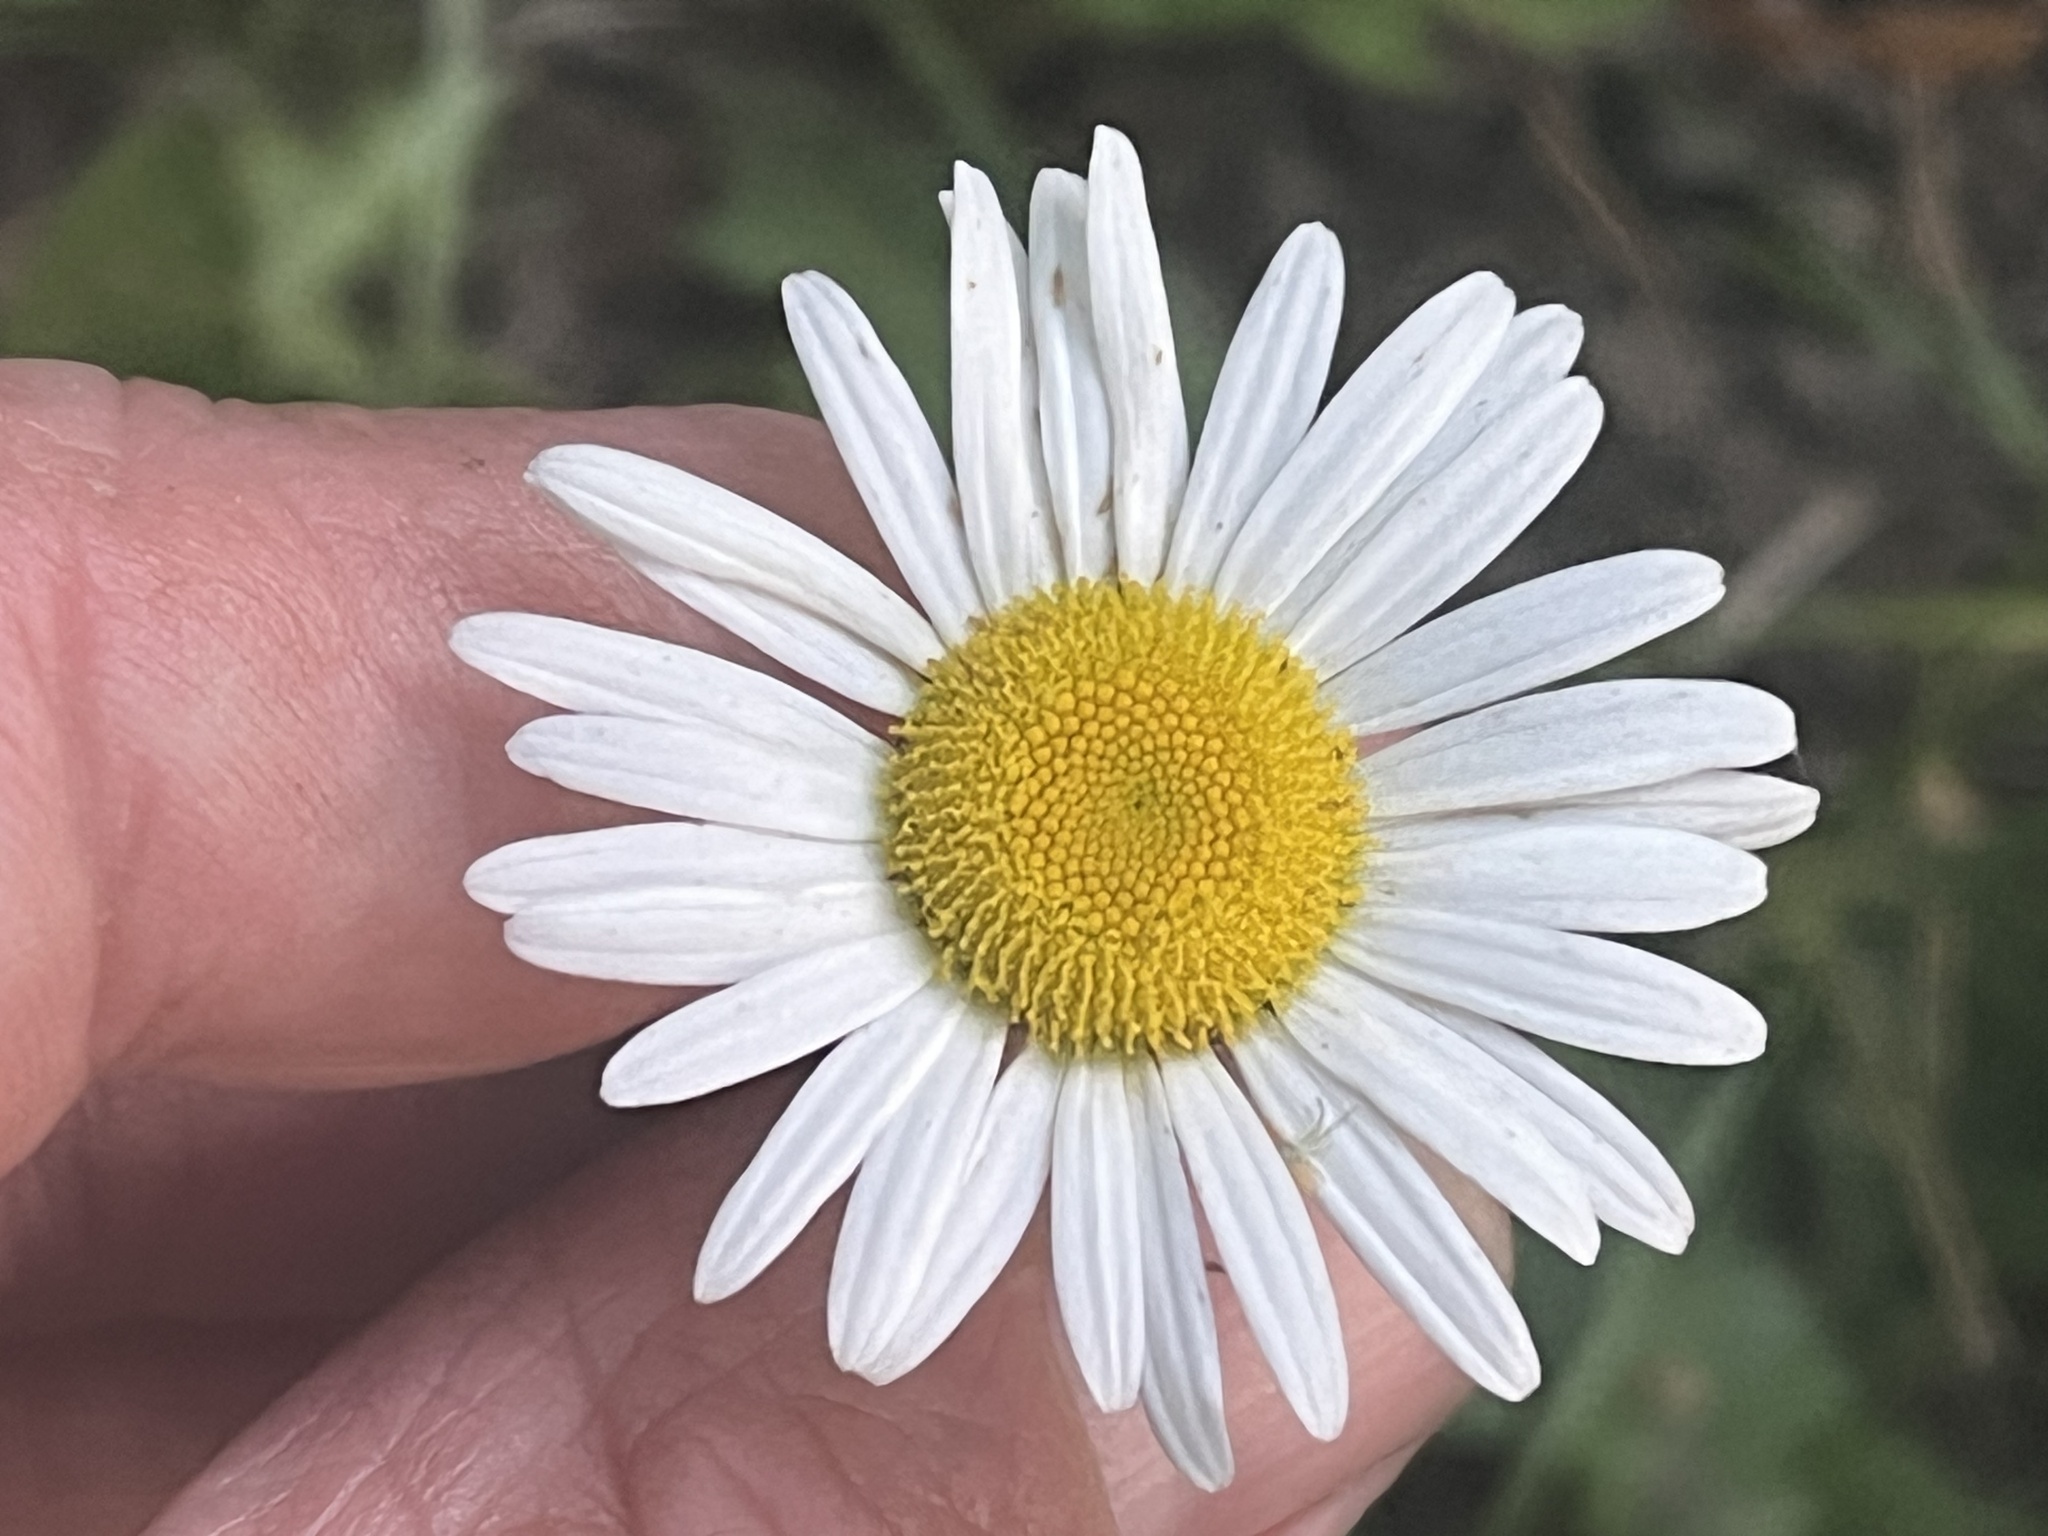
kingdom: Plantae
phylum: Tracheophyta
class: Magnoliopsida
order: Asterales
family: Asteraceae
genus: Leucanthemum
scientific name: Leucanthemum vulgare
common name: Oxeye daisy
